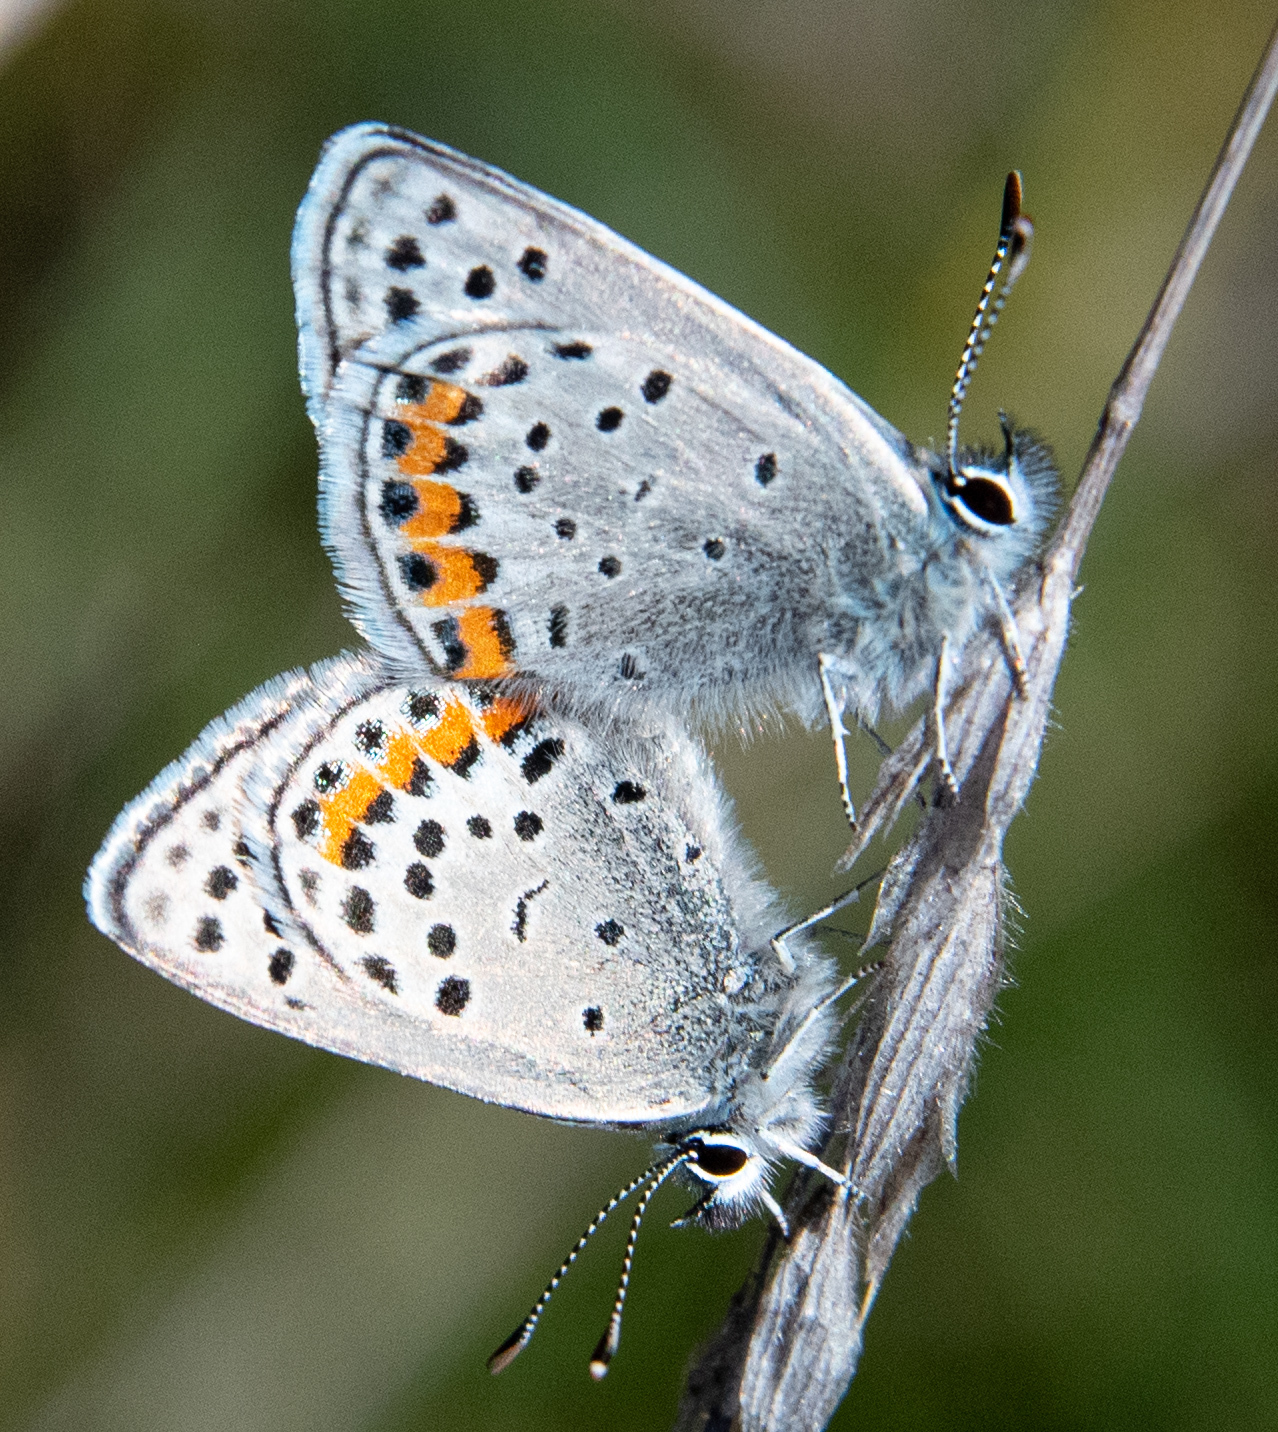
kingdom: Animalia
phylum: Arthropoda
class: Insecta
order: Lepidoptera
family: Lycaenidae
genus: Icaricia
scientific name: Icaricia acmon
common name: Acmon blue
